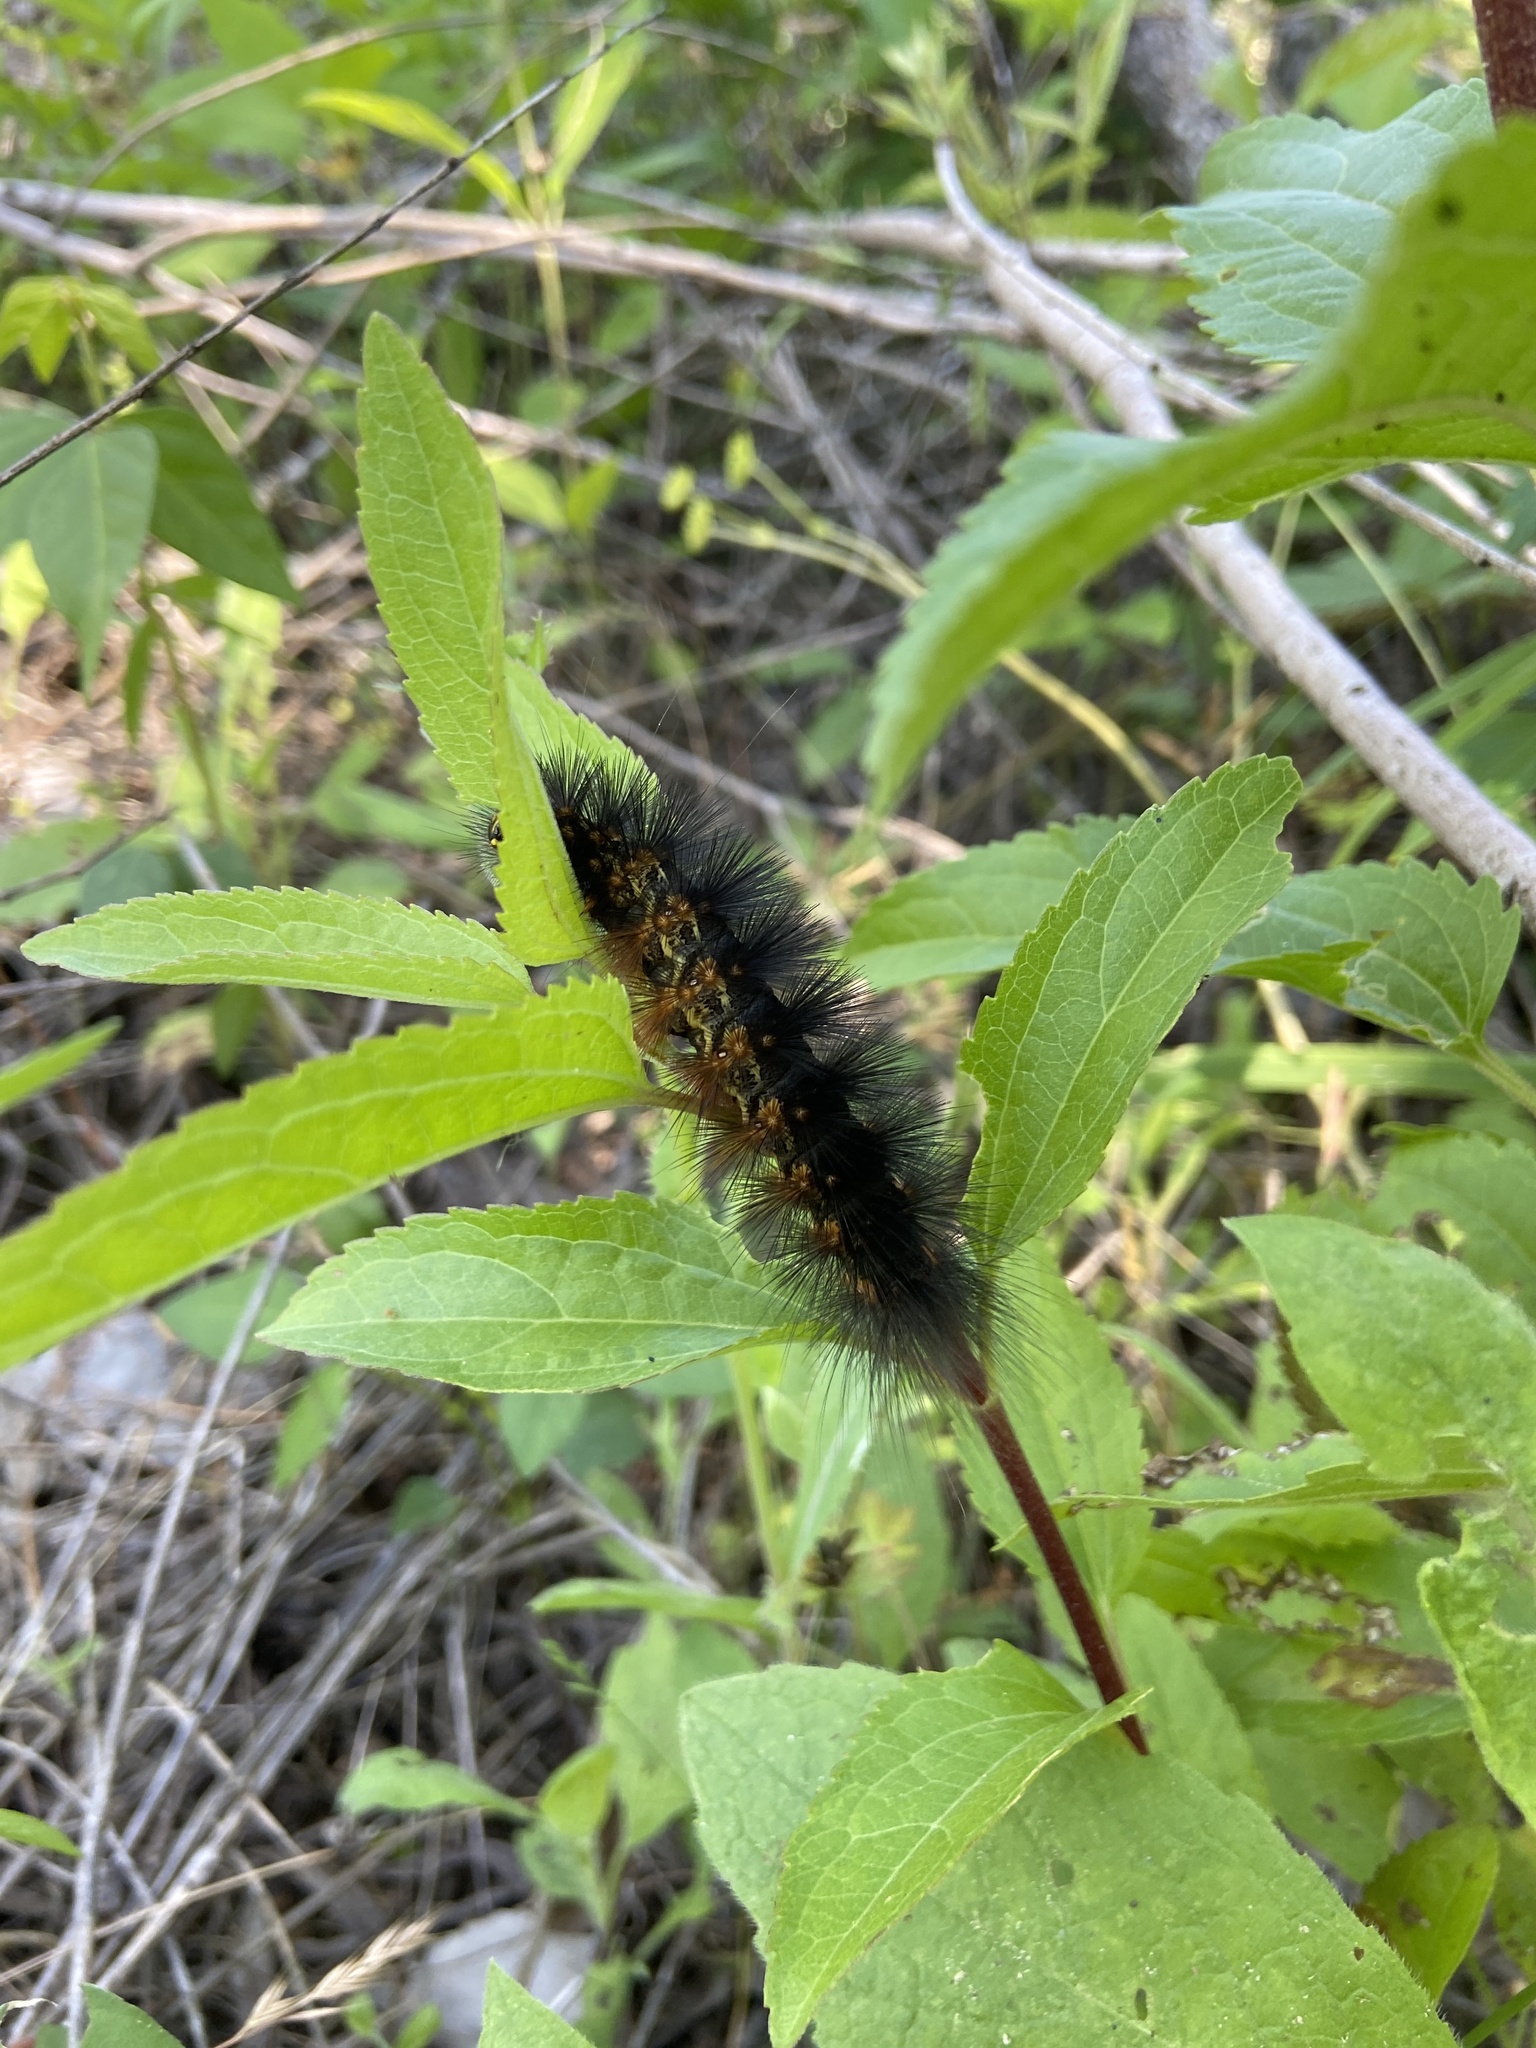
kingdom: Animalia
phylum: Arthropoda
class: Insecta
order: Lepidoptera
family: Erebidae
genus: Estigmene
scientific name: Estigmene acrea
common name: Salt marsh moth
